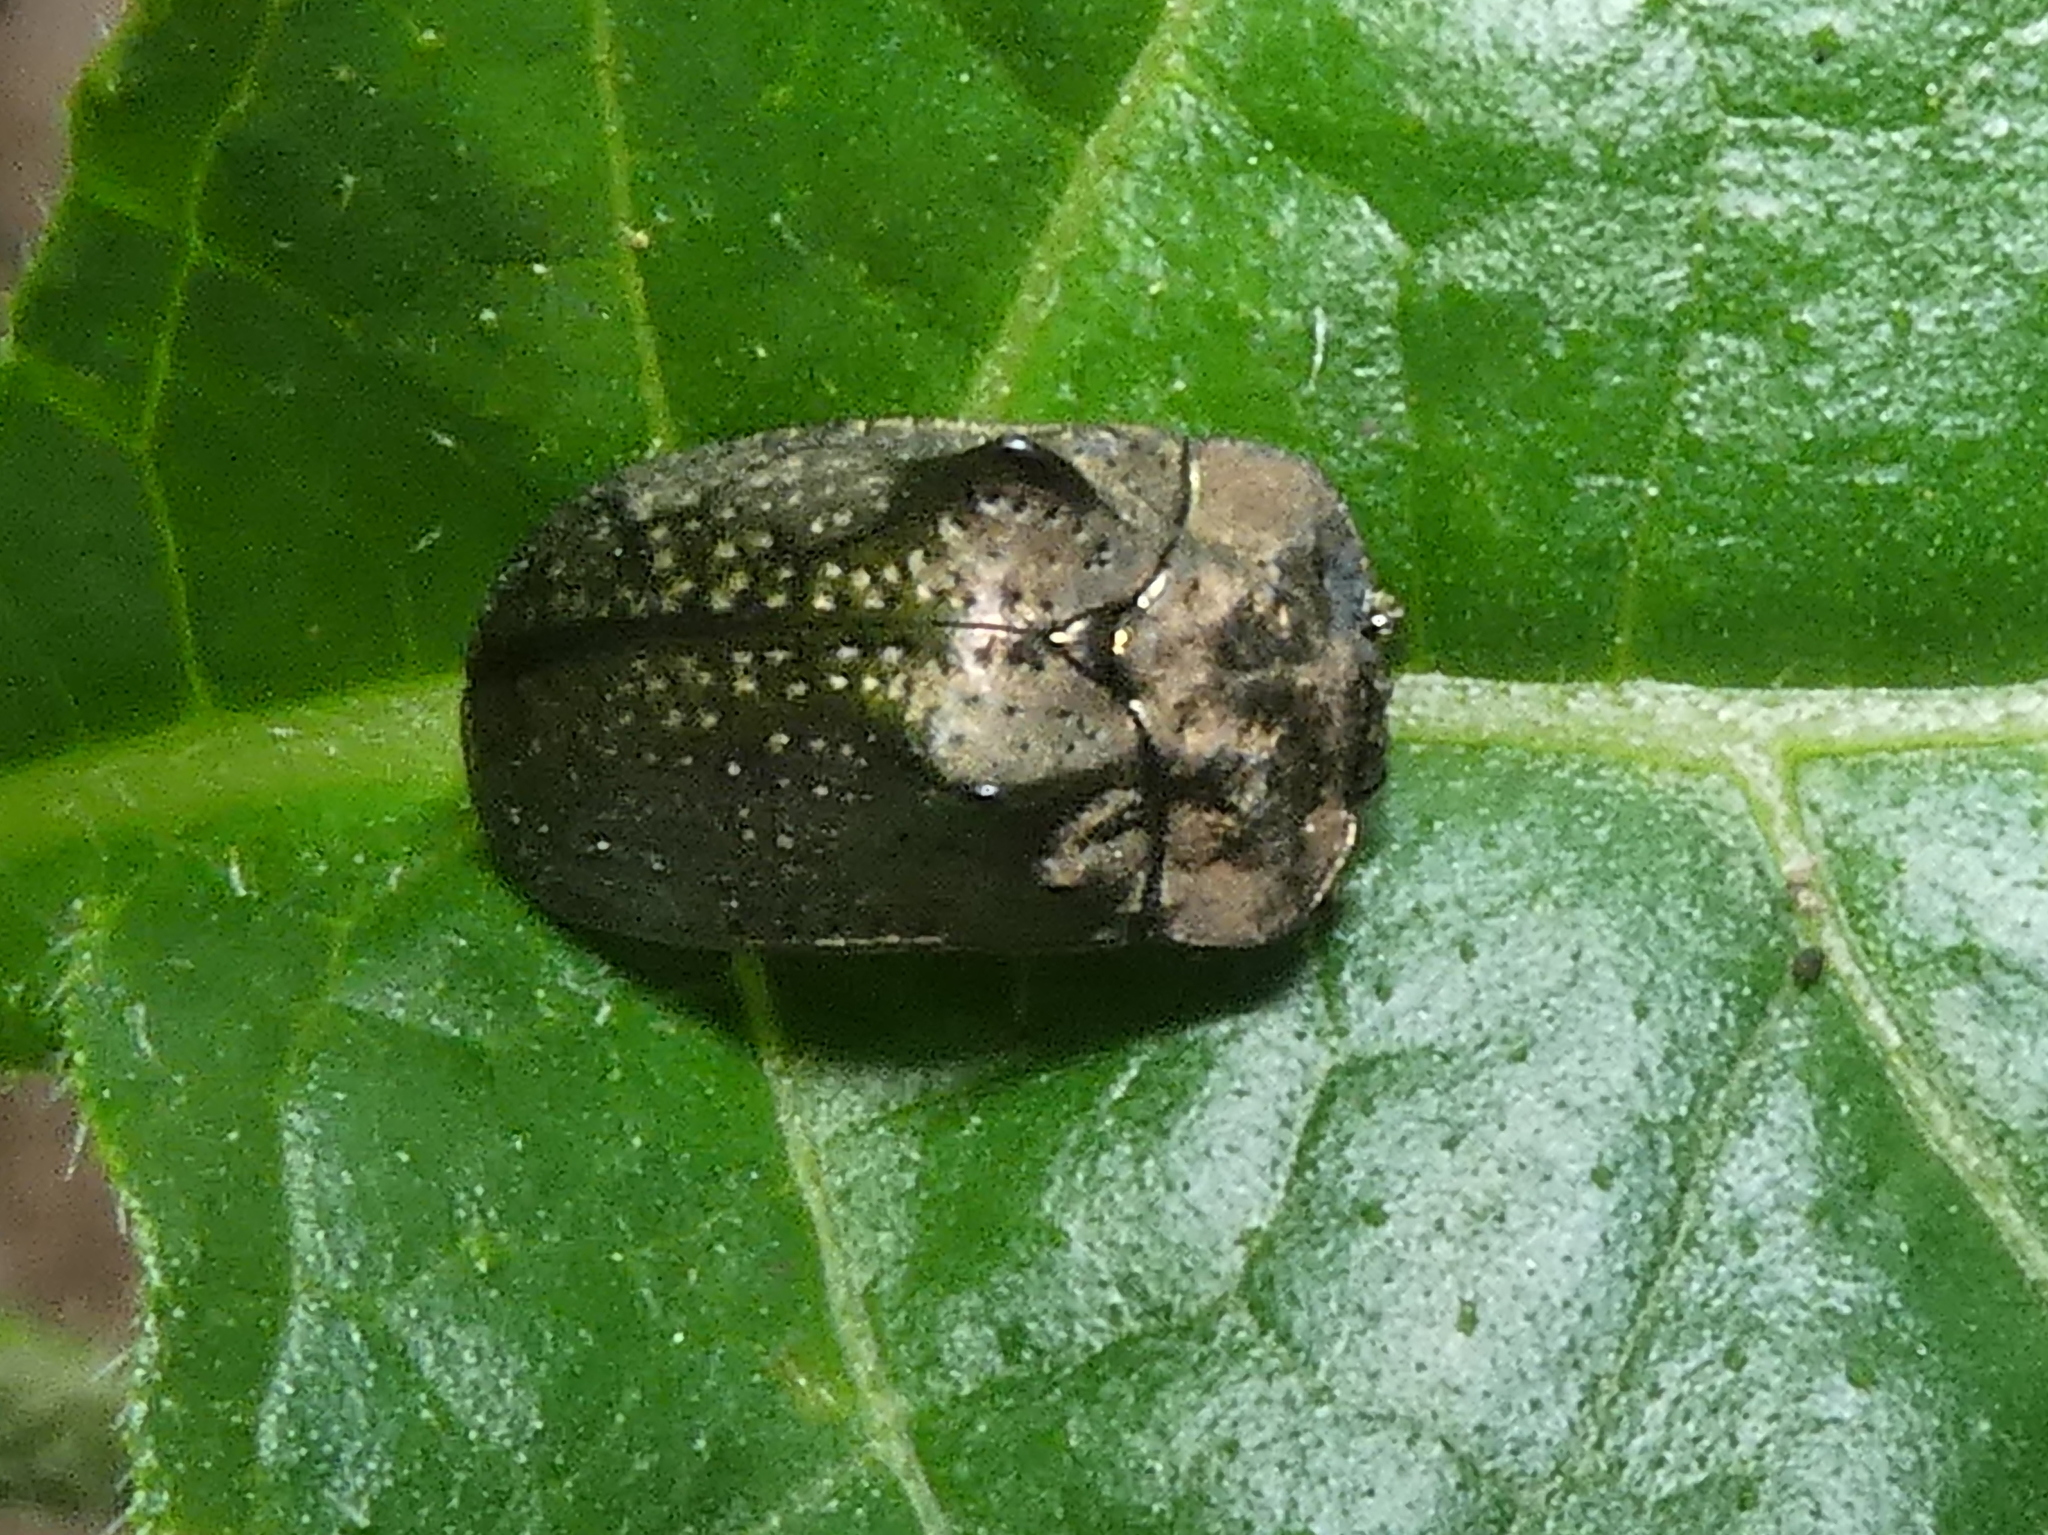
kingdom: Animalia
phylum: Arthropoda
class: Insecta
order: Coleoptera
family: Chrysomelidae
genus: Chlamydocassis
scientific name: Chlamydocassis bicornuta
